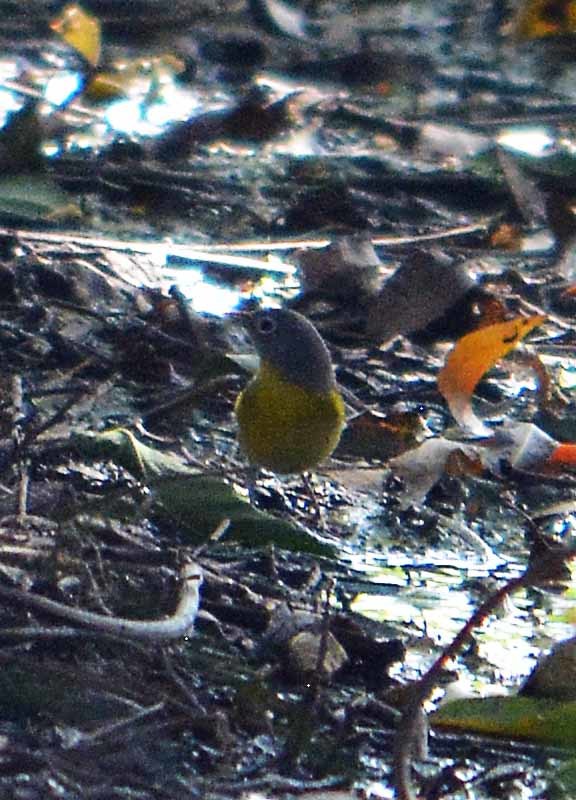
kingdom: Animalia
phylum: Chordata
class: Aves
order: Passeriformes
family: Parulidae
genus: Leiothlypis
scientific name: Leiothlypis ruficapilla
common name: Nashville warbler
